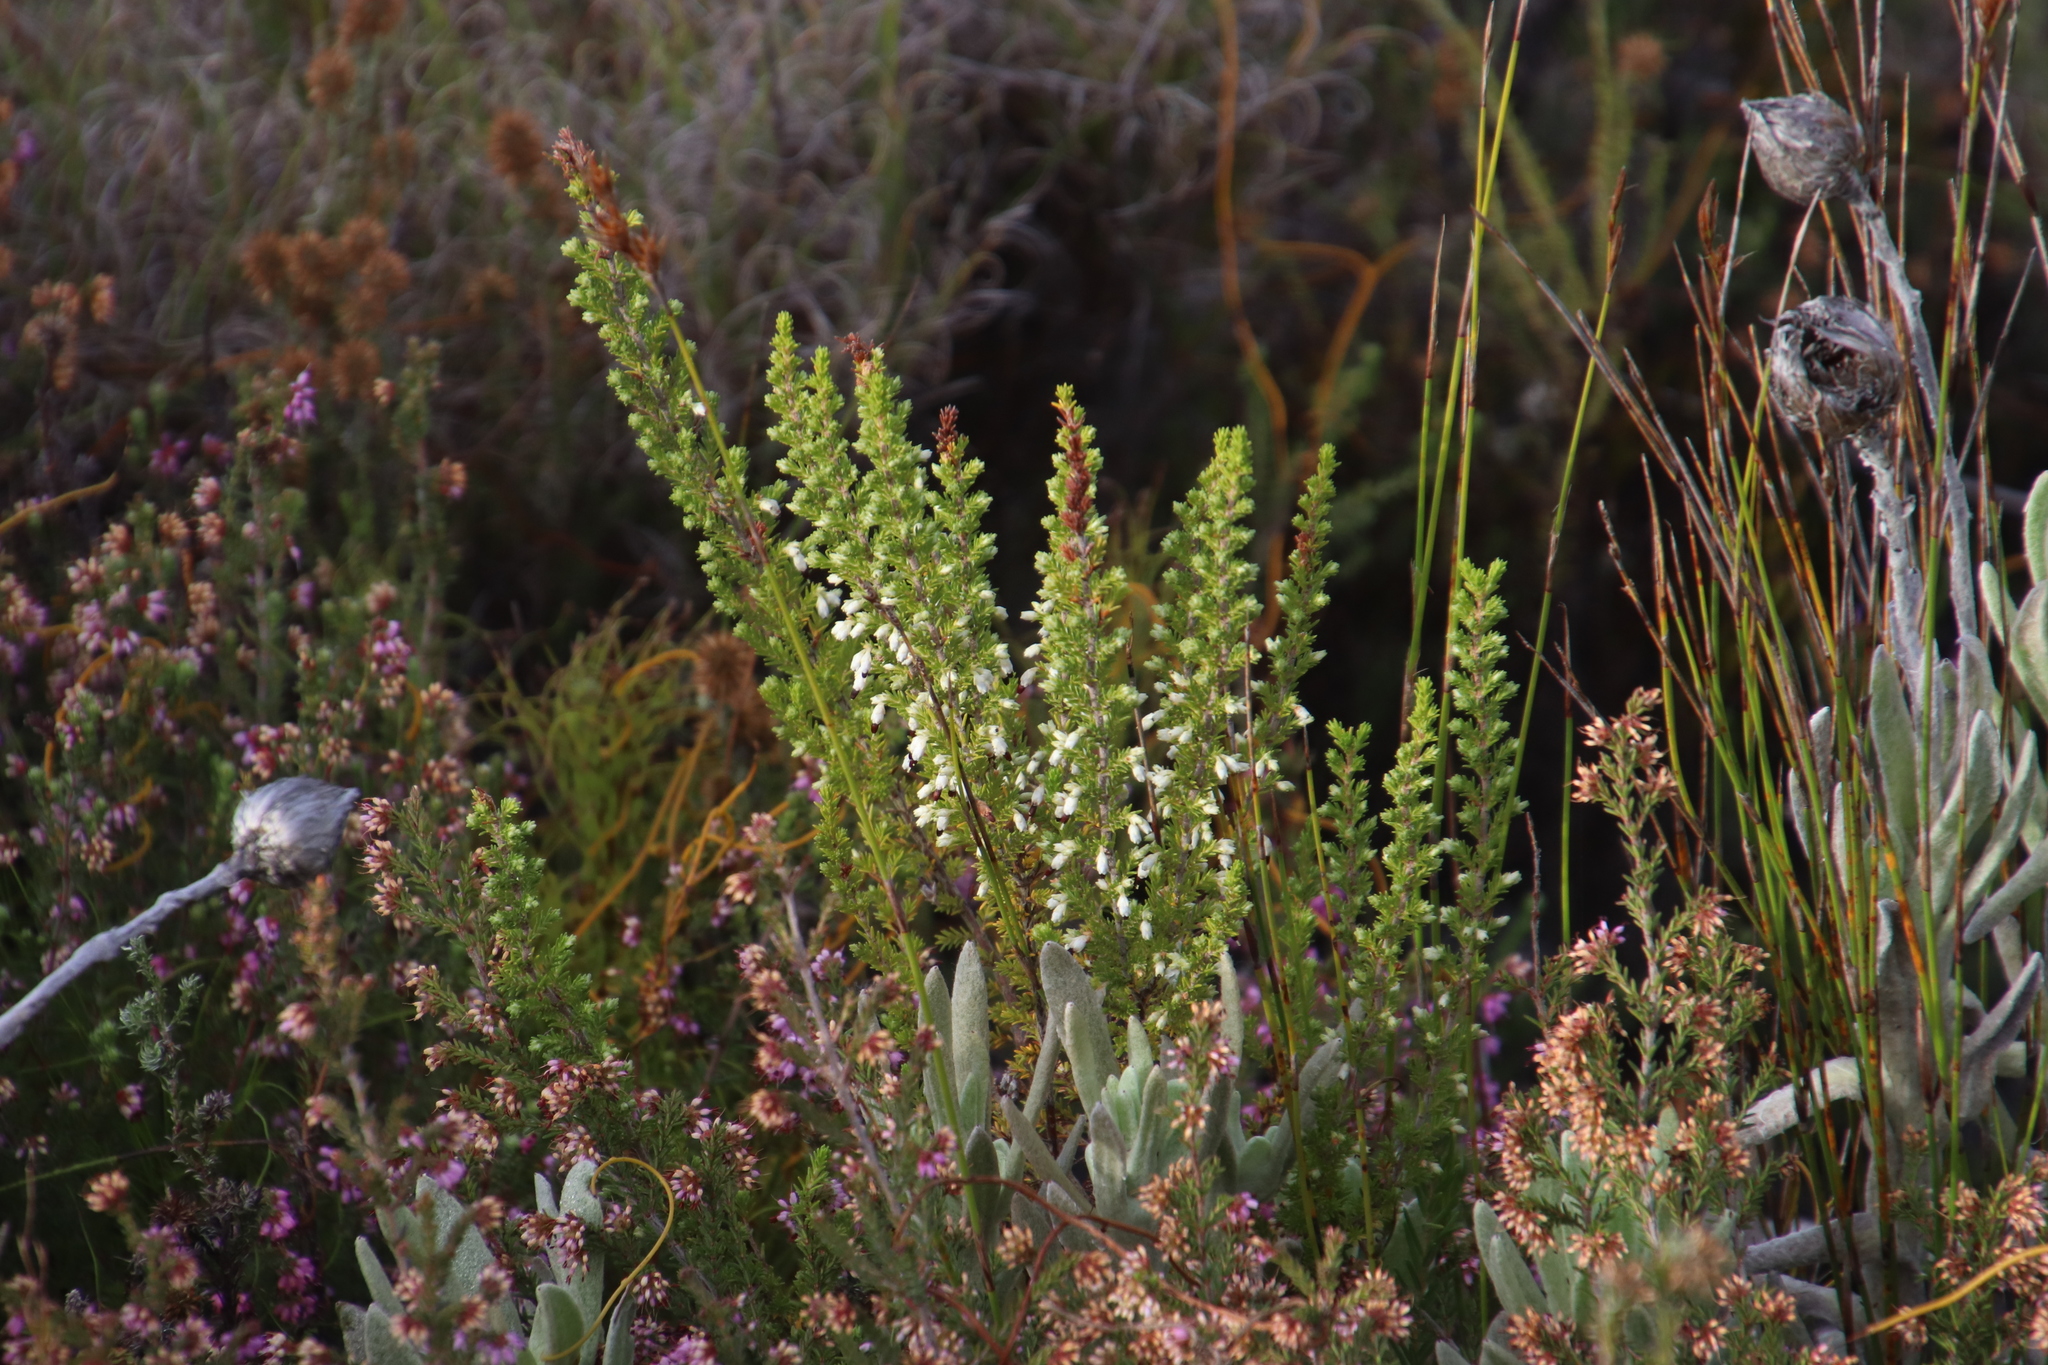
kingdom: Plantae
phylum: Tracheophyta
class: Magnoliopsida
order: Ericales
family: Ericaceae
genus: Erica
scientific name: Erica imbricata
